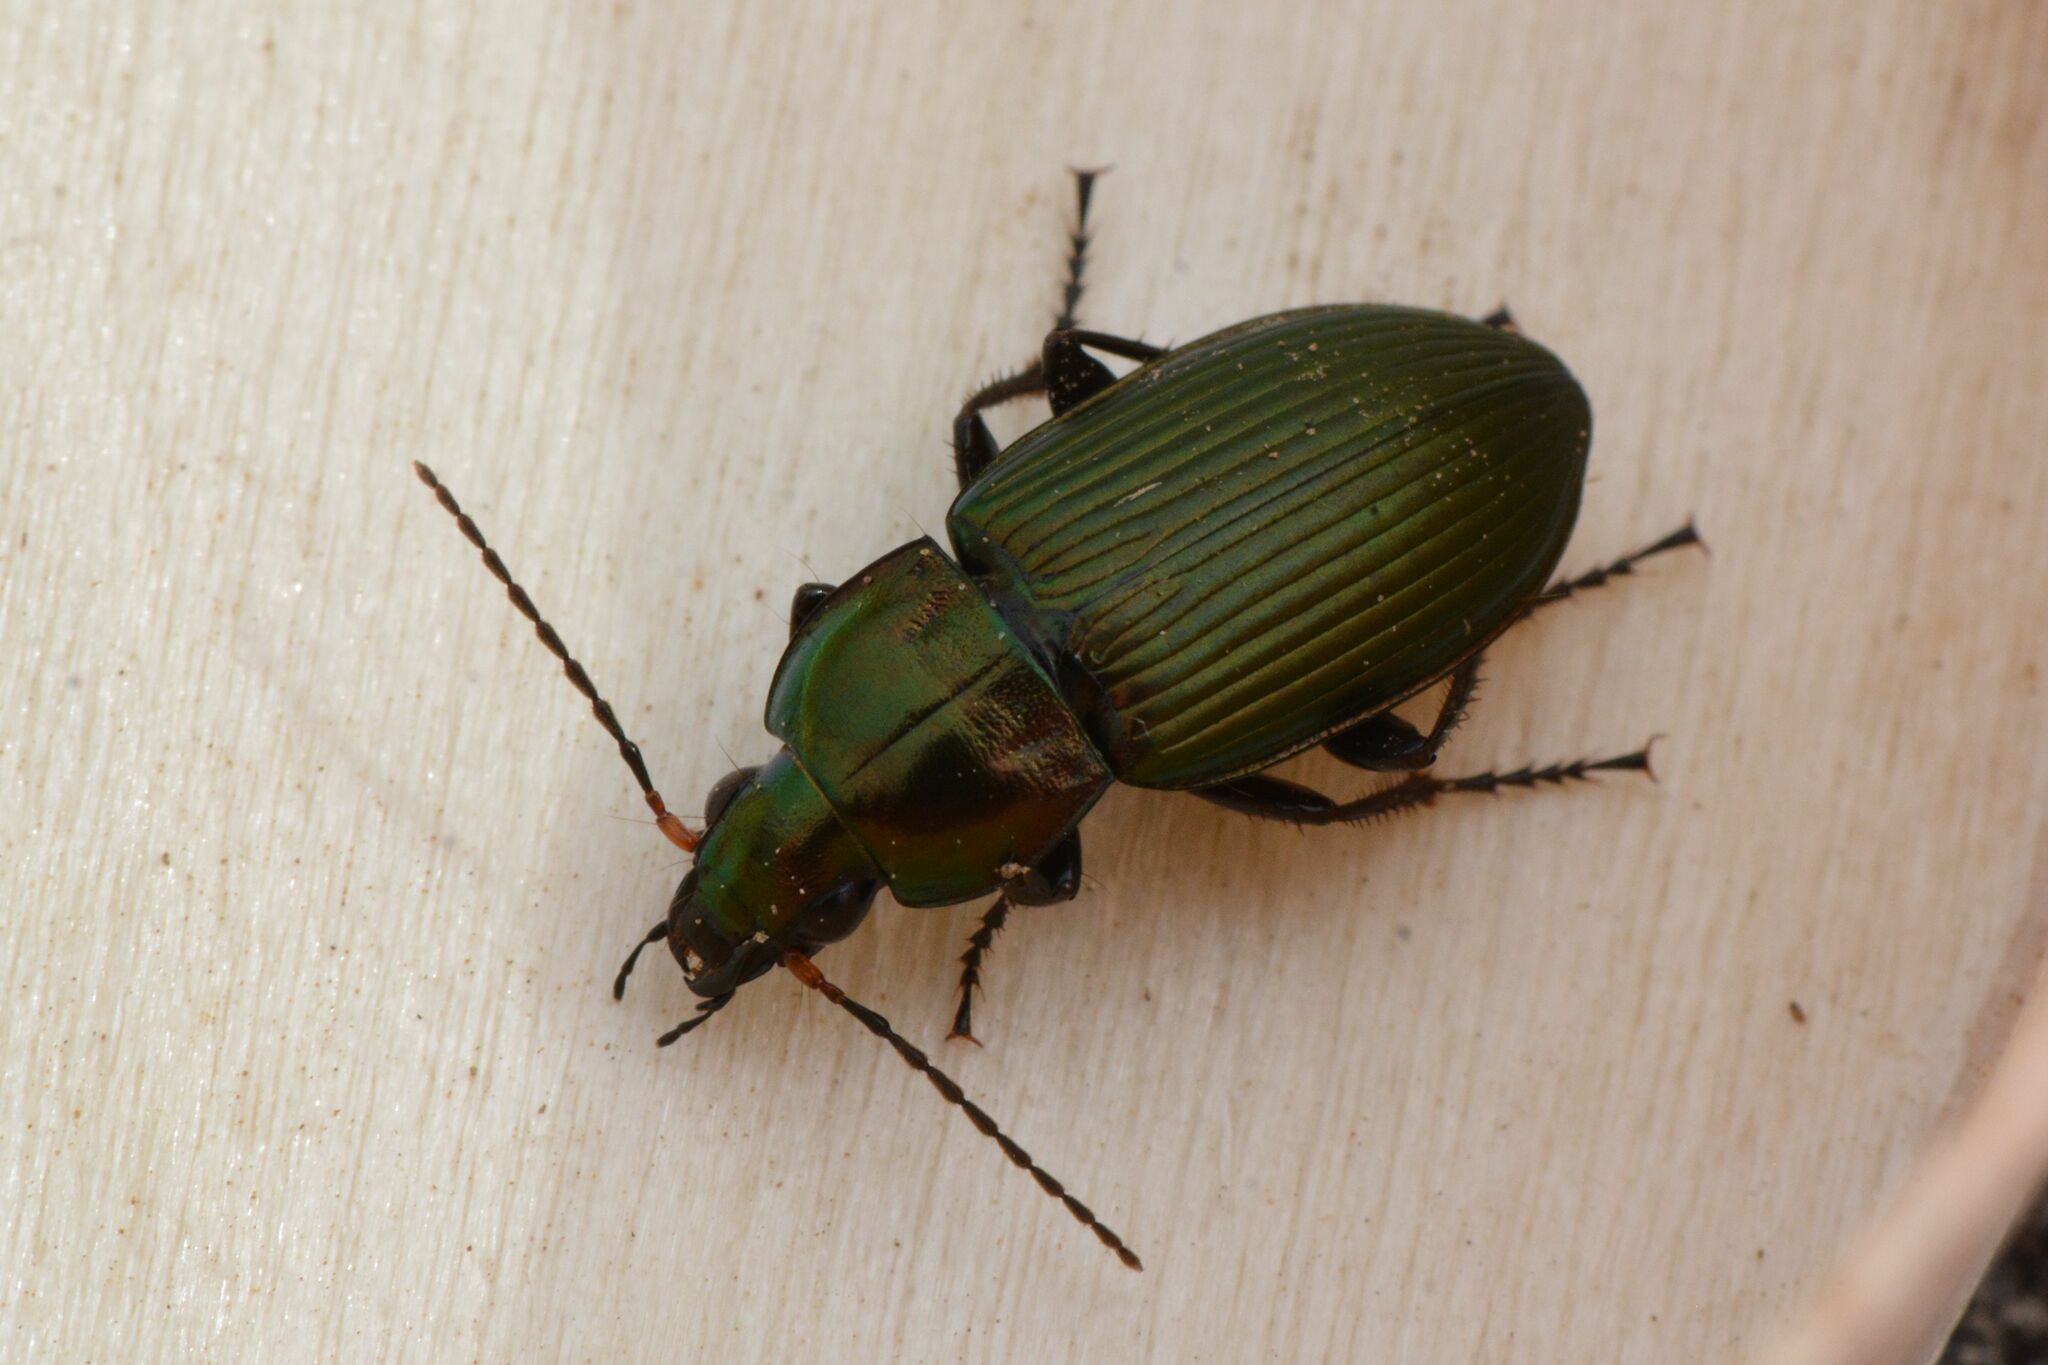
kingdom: Animalia
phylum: Arthropoda
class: Insecta
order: Coleoptera
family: Carabidae
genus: Poecilus
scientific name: Poecilus cupreus
